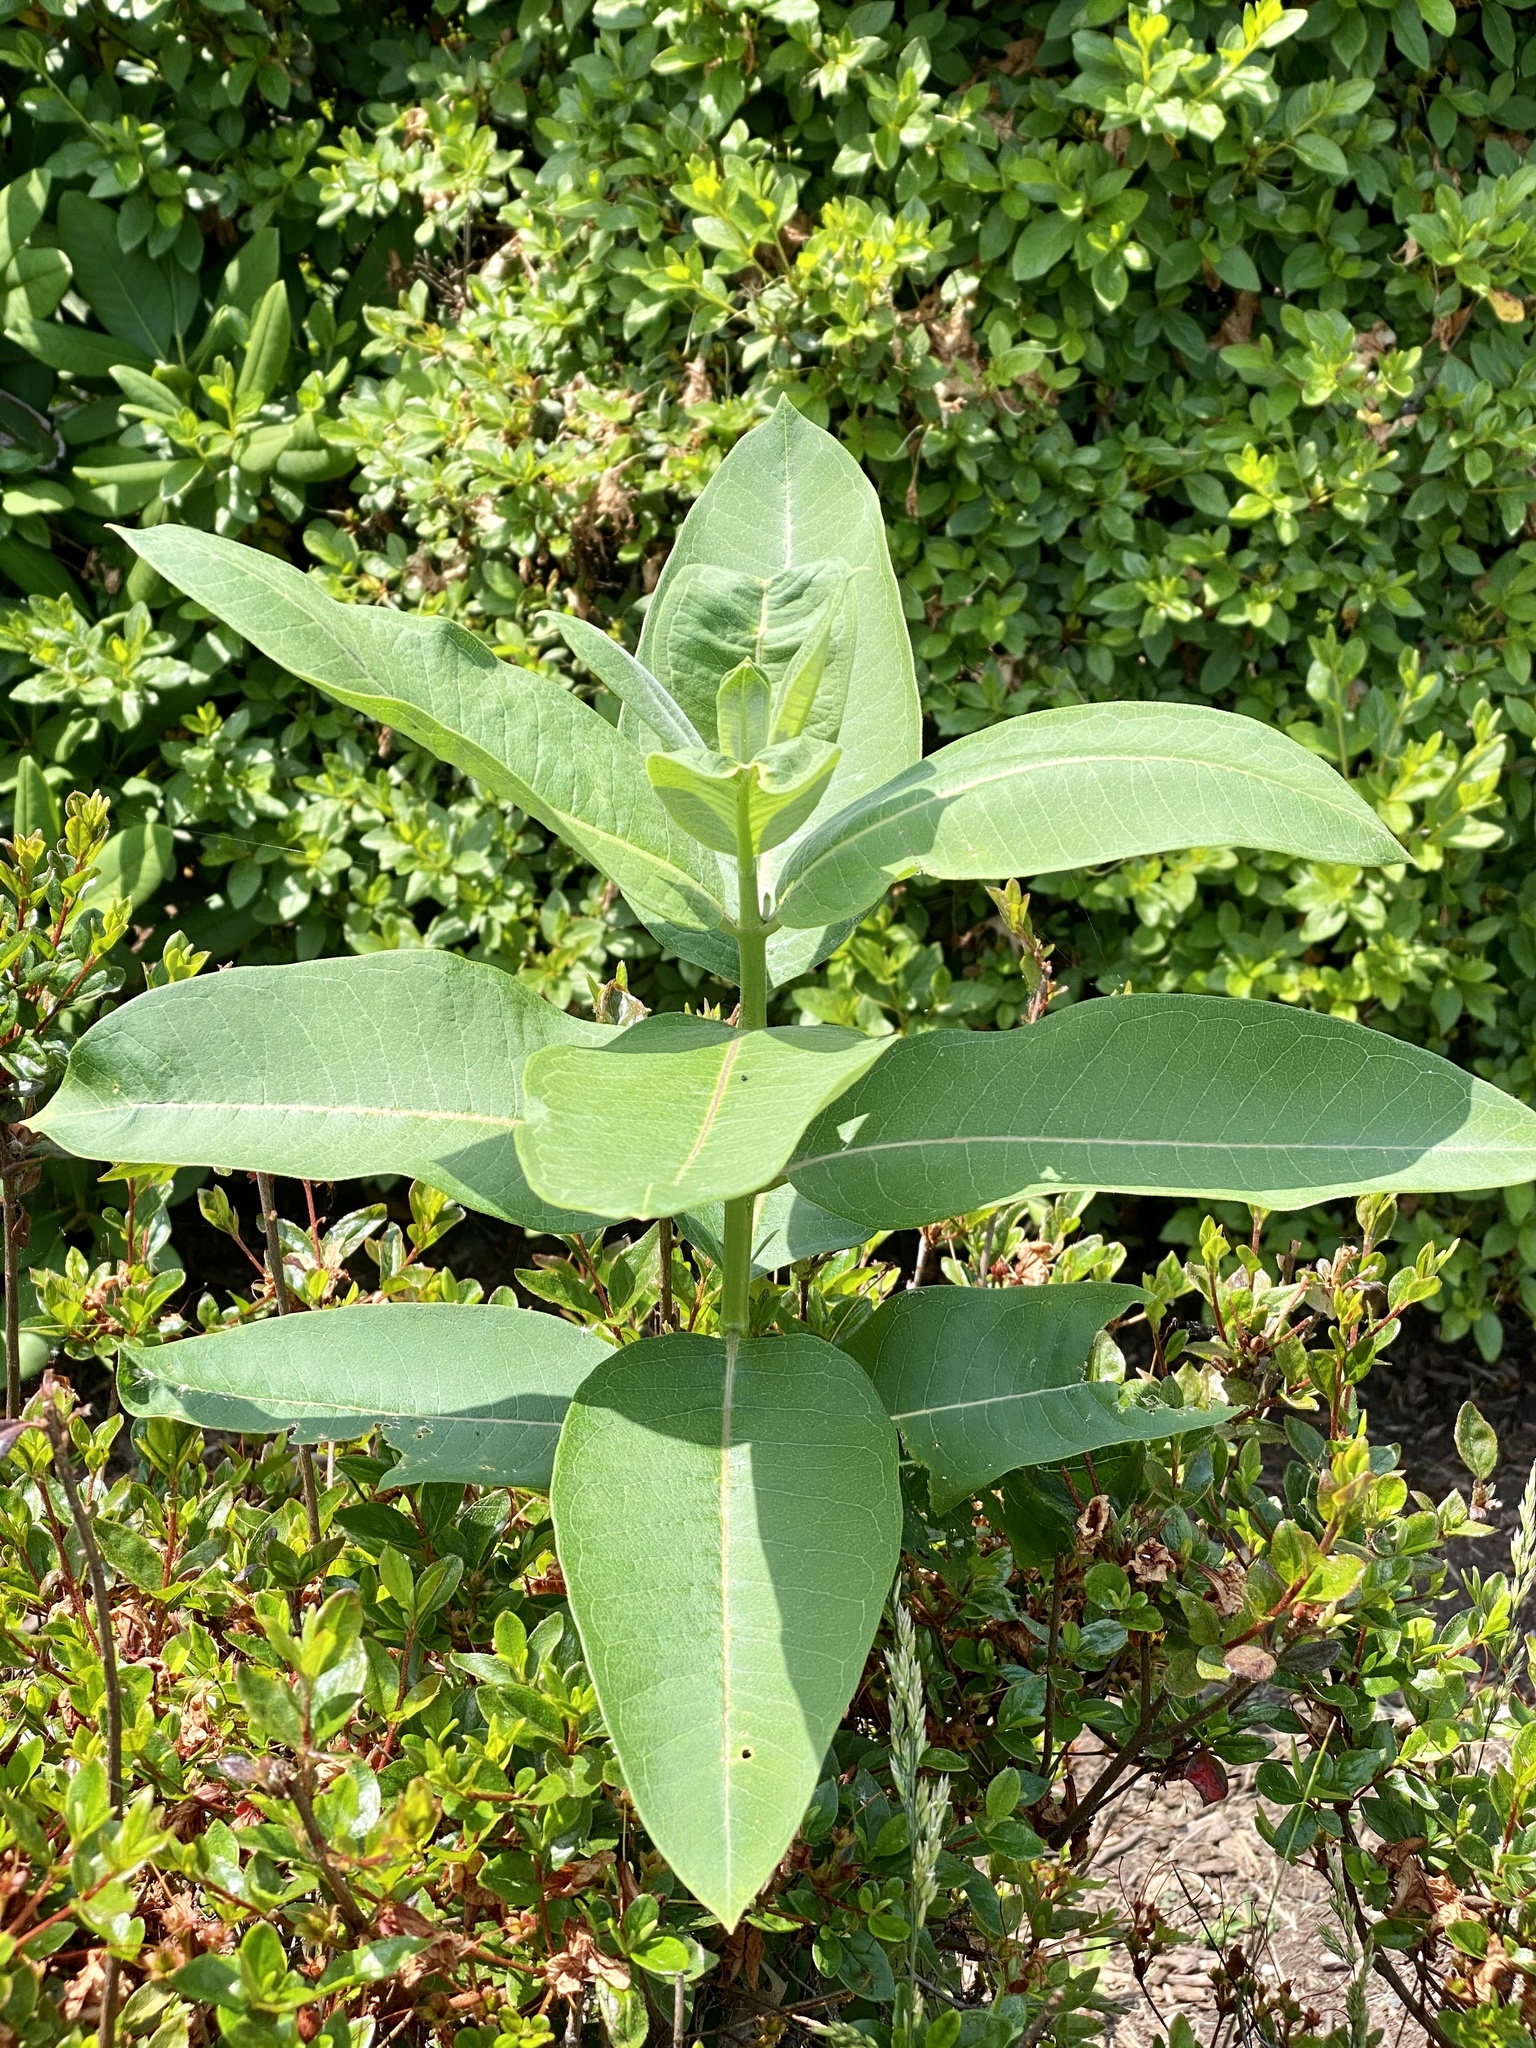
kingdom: Plantae
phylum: Tracheophyta
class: Magnoliopsida
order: Gentianales
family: Apocynaceae
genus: Asclepias
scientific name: Asclepias syriaca
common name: Common milkweed
